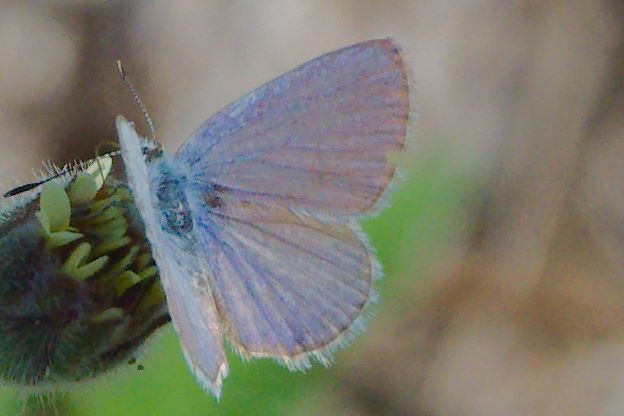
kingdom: Animalia
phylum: Arthropoda
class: Insecta
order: Lepidoptera
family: Lycaenidae
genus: Hemiargus
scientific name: Hemiargus ceraunus
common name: Ceraunus blue
